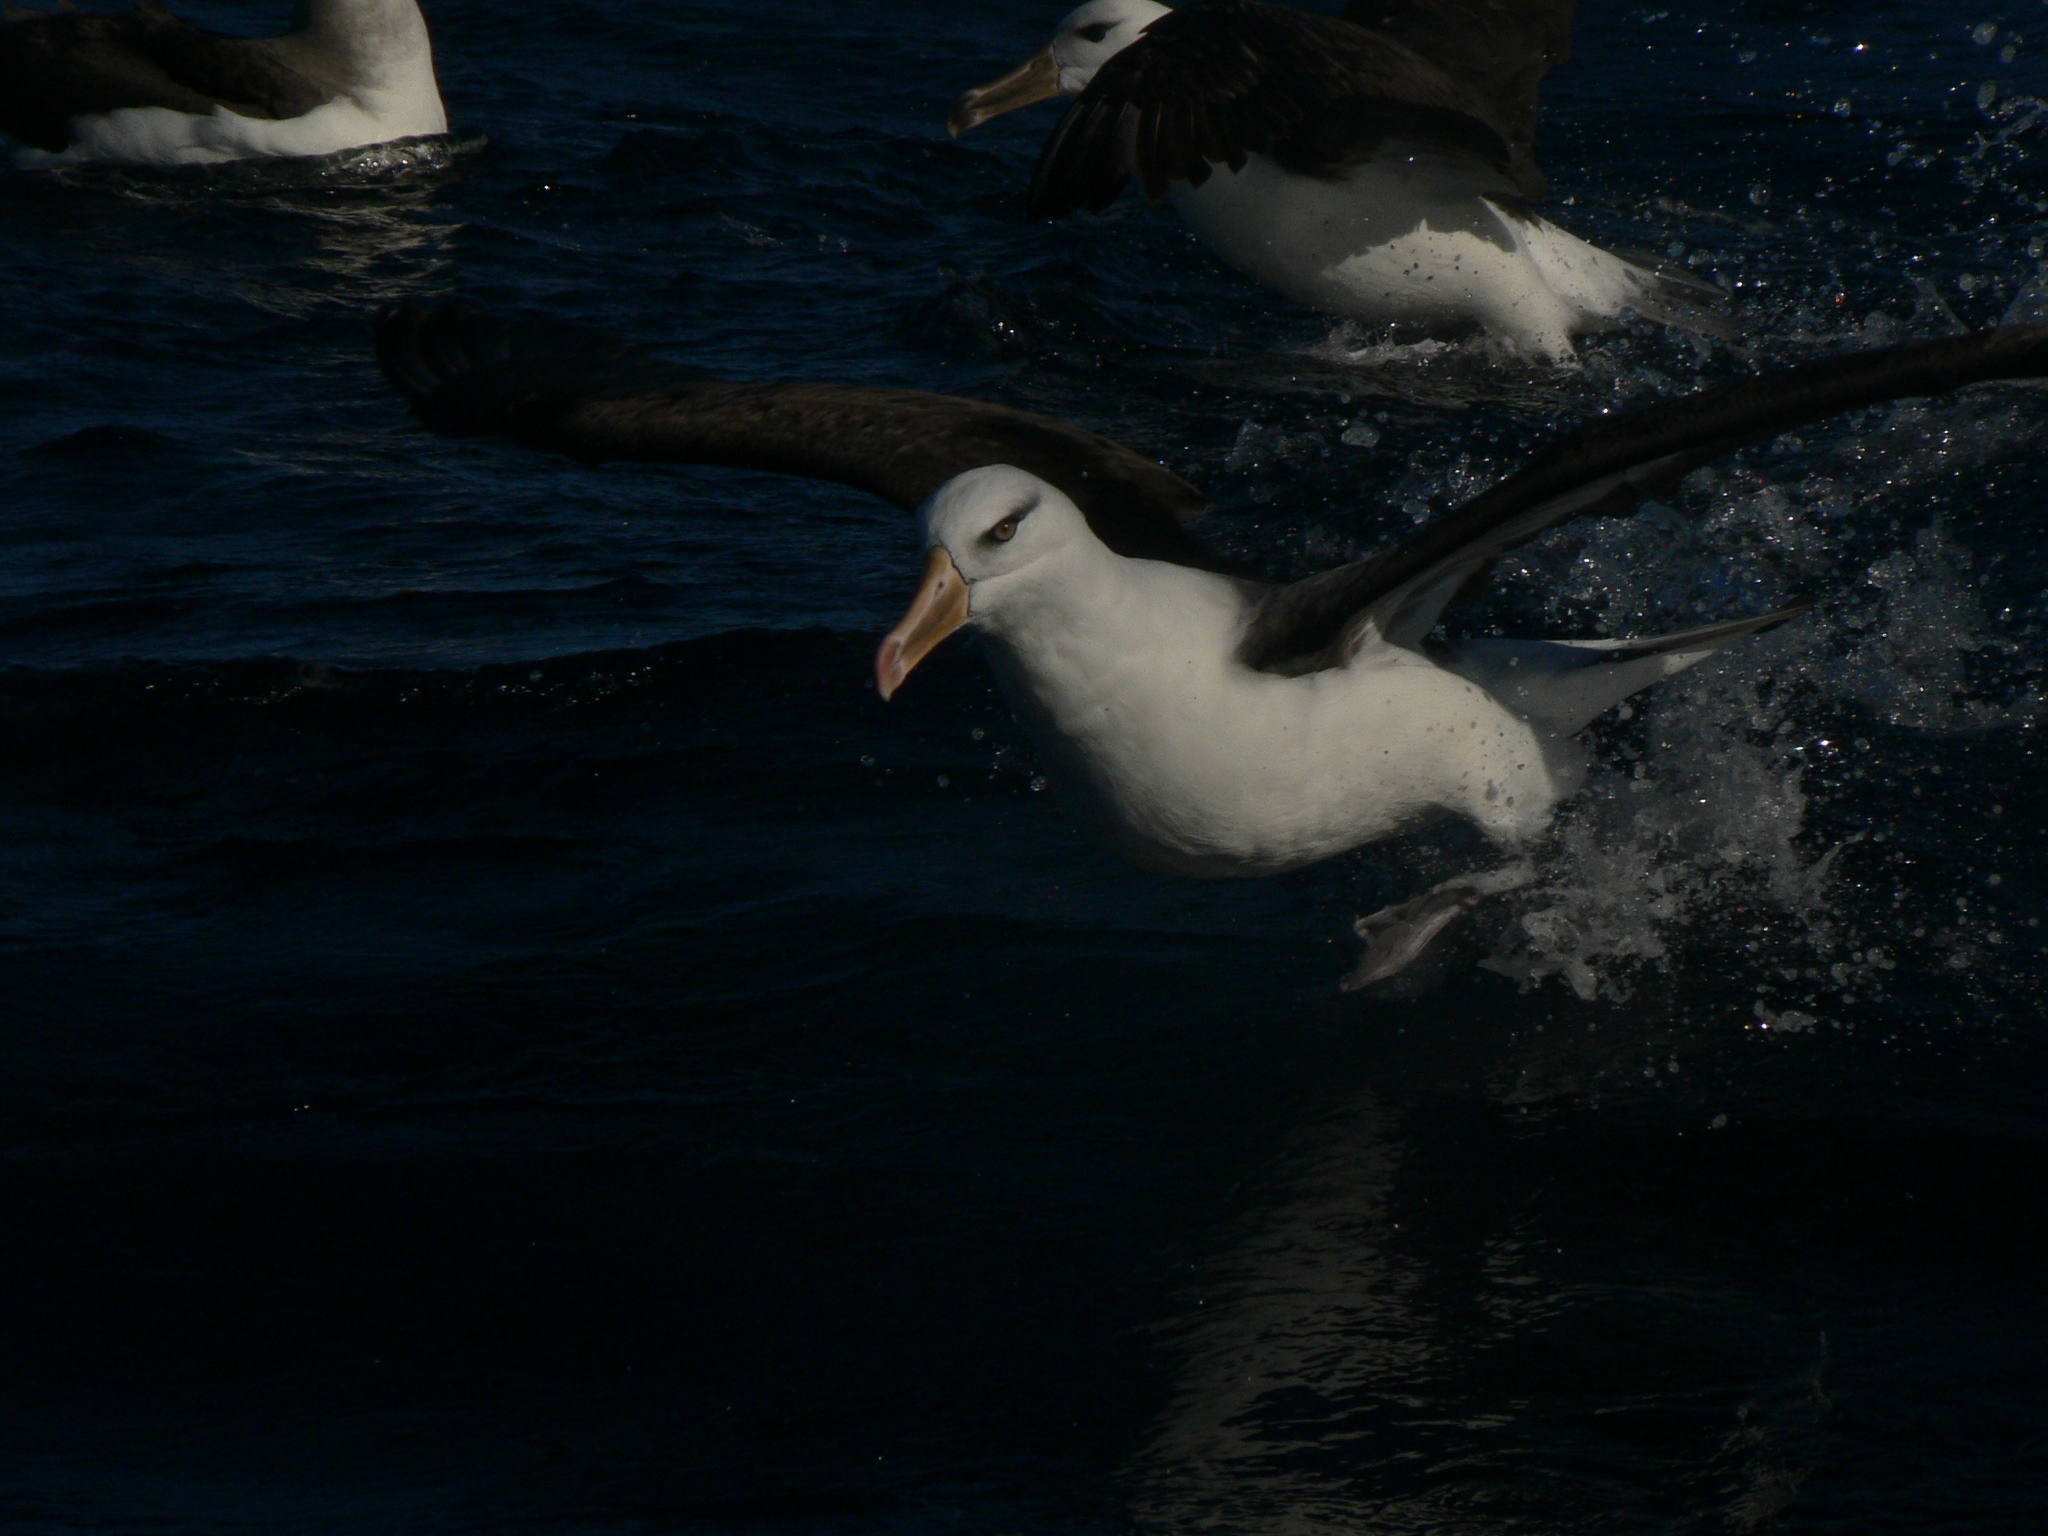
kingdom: Animalia
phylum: Chordata
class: Aves
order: Procellariiformes
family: Diomedeidae
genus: Thalassarche
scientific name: Thalassarche impavida
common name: Campbell albatross
